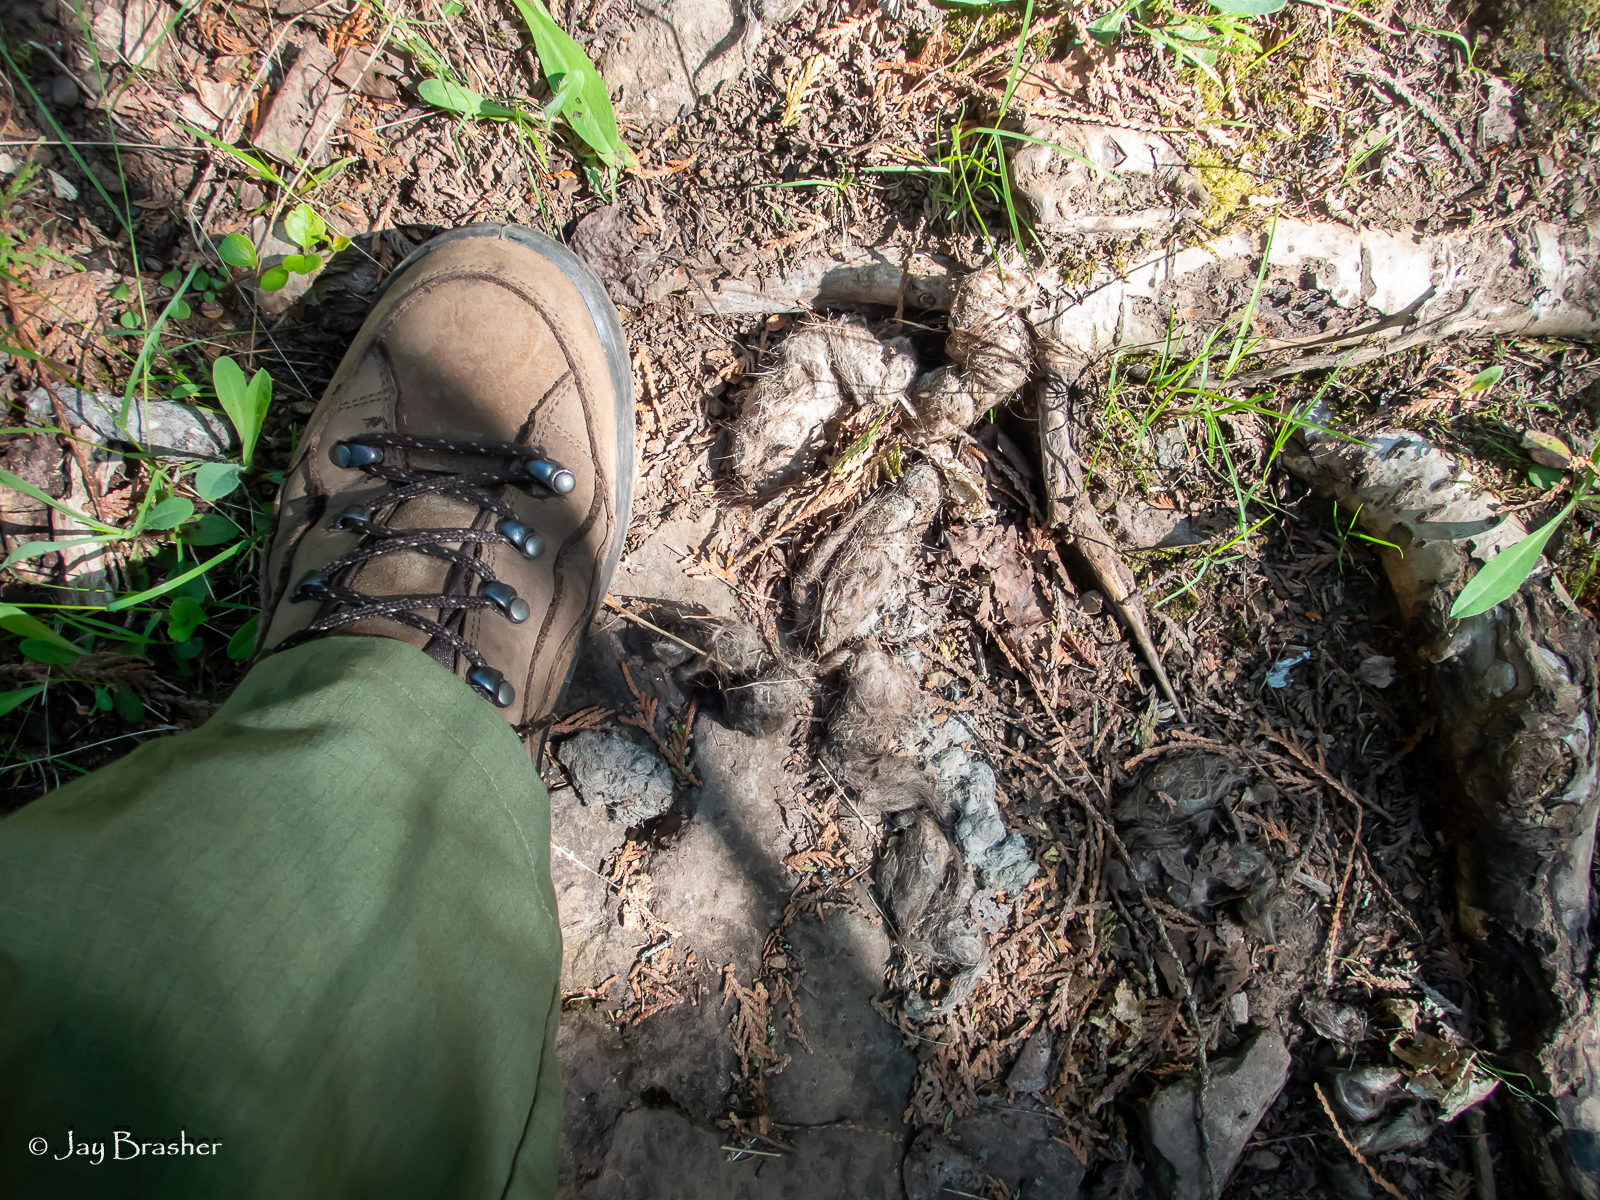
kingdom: Animalia
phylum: Chordata
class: Mammalia
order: Carnivora
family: Canidae
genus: Canis
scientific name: Canis lupus
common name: Gray wolf
